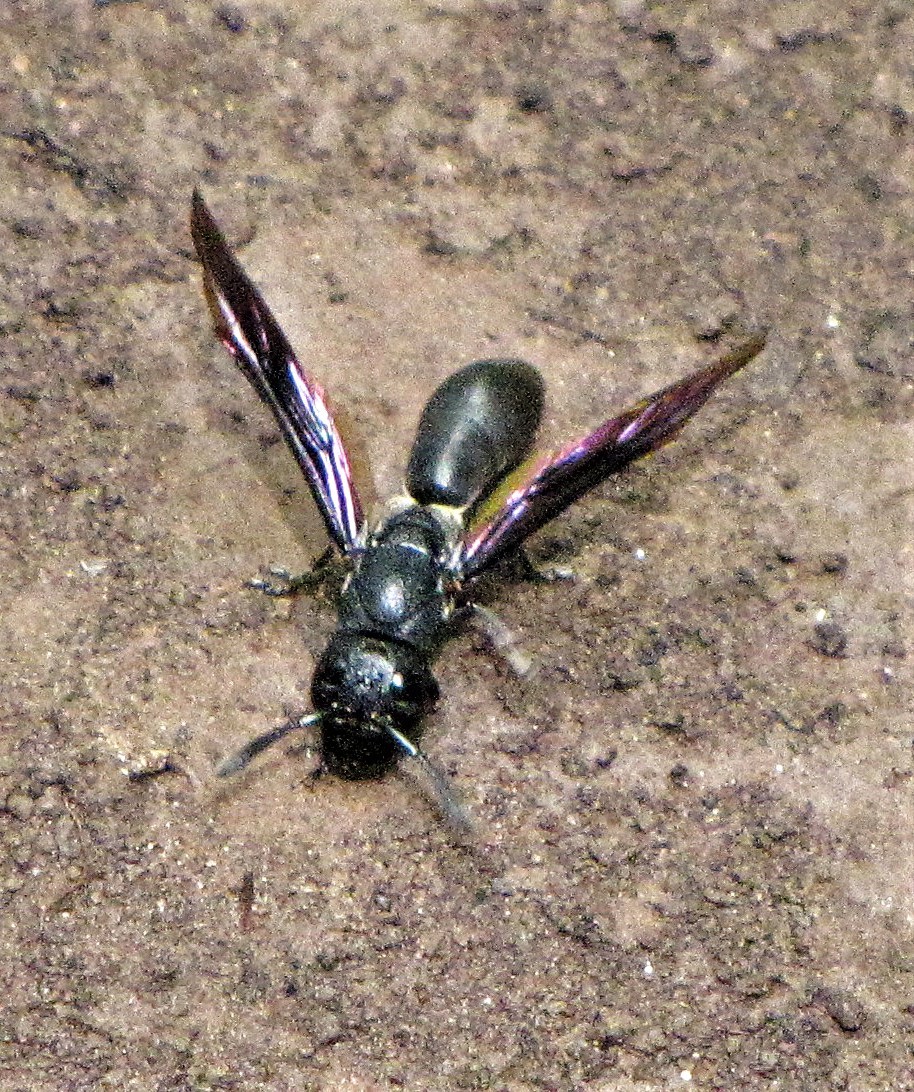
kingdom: Animalia
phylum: Arthropoda
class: Insecta
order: Hymenoptera
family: Eumenidae
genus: Plagiolabra
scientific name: Plagiolabra nigra
